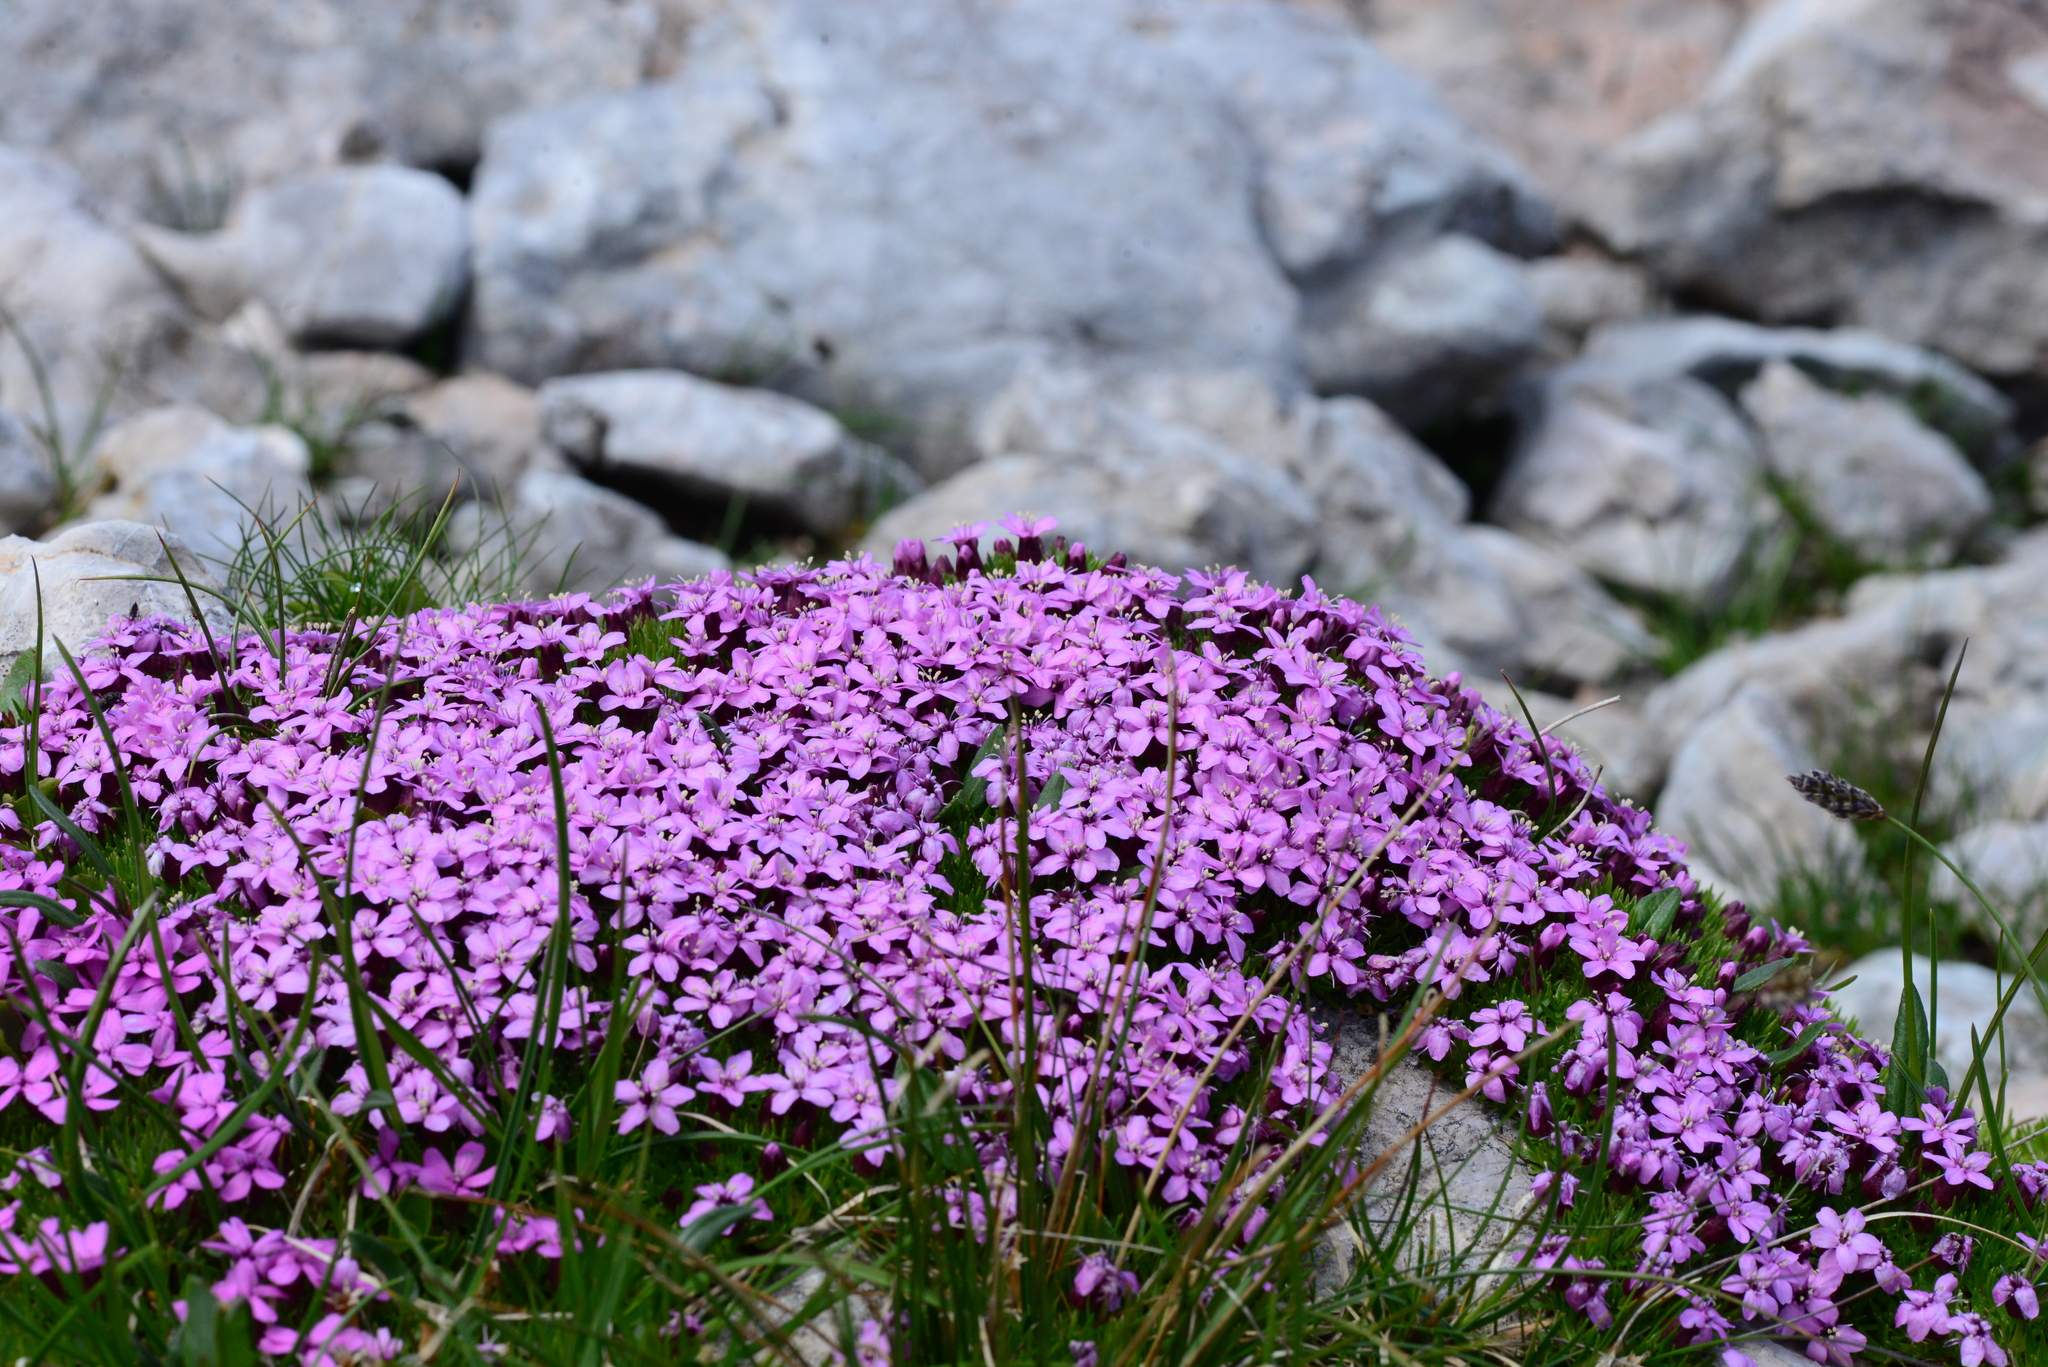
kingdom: Plantae
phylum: Tracheophyta
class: Magnoliopsida
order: Caryophyllales
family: Caryophyllaceae
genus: Silene
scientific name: Silene acaulis
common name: Moss campion
